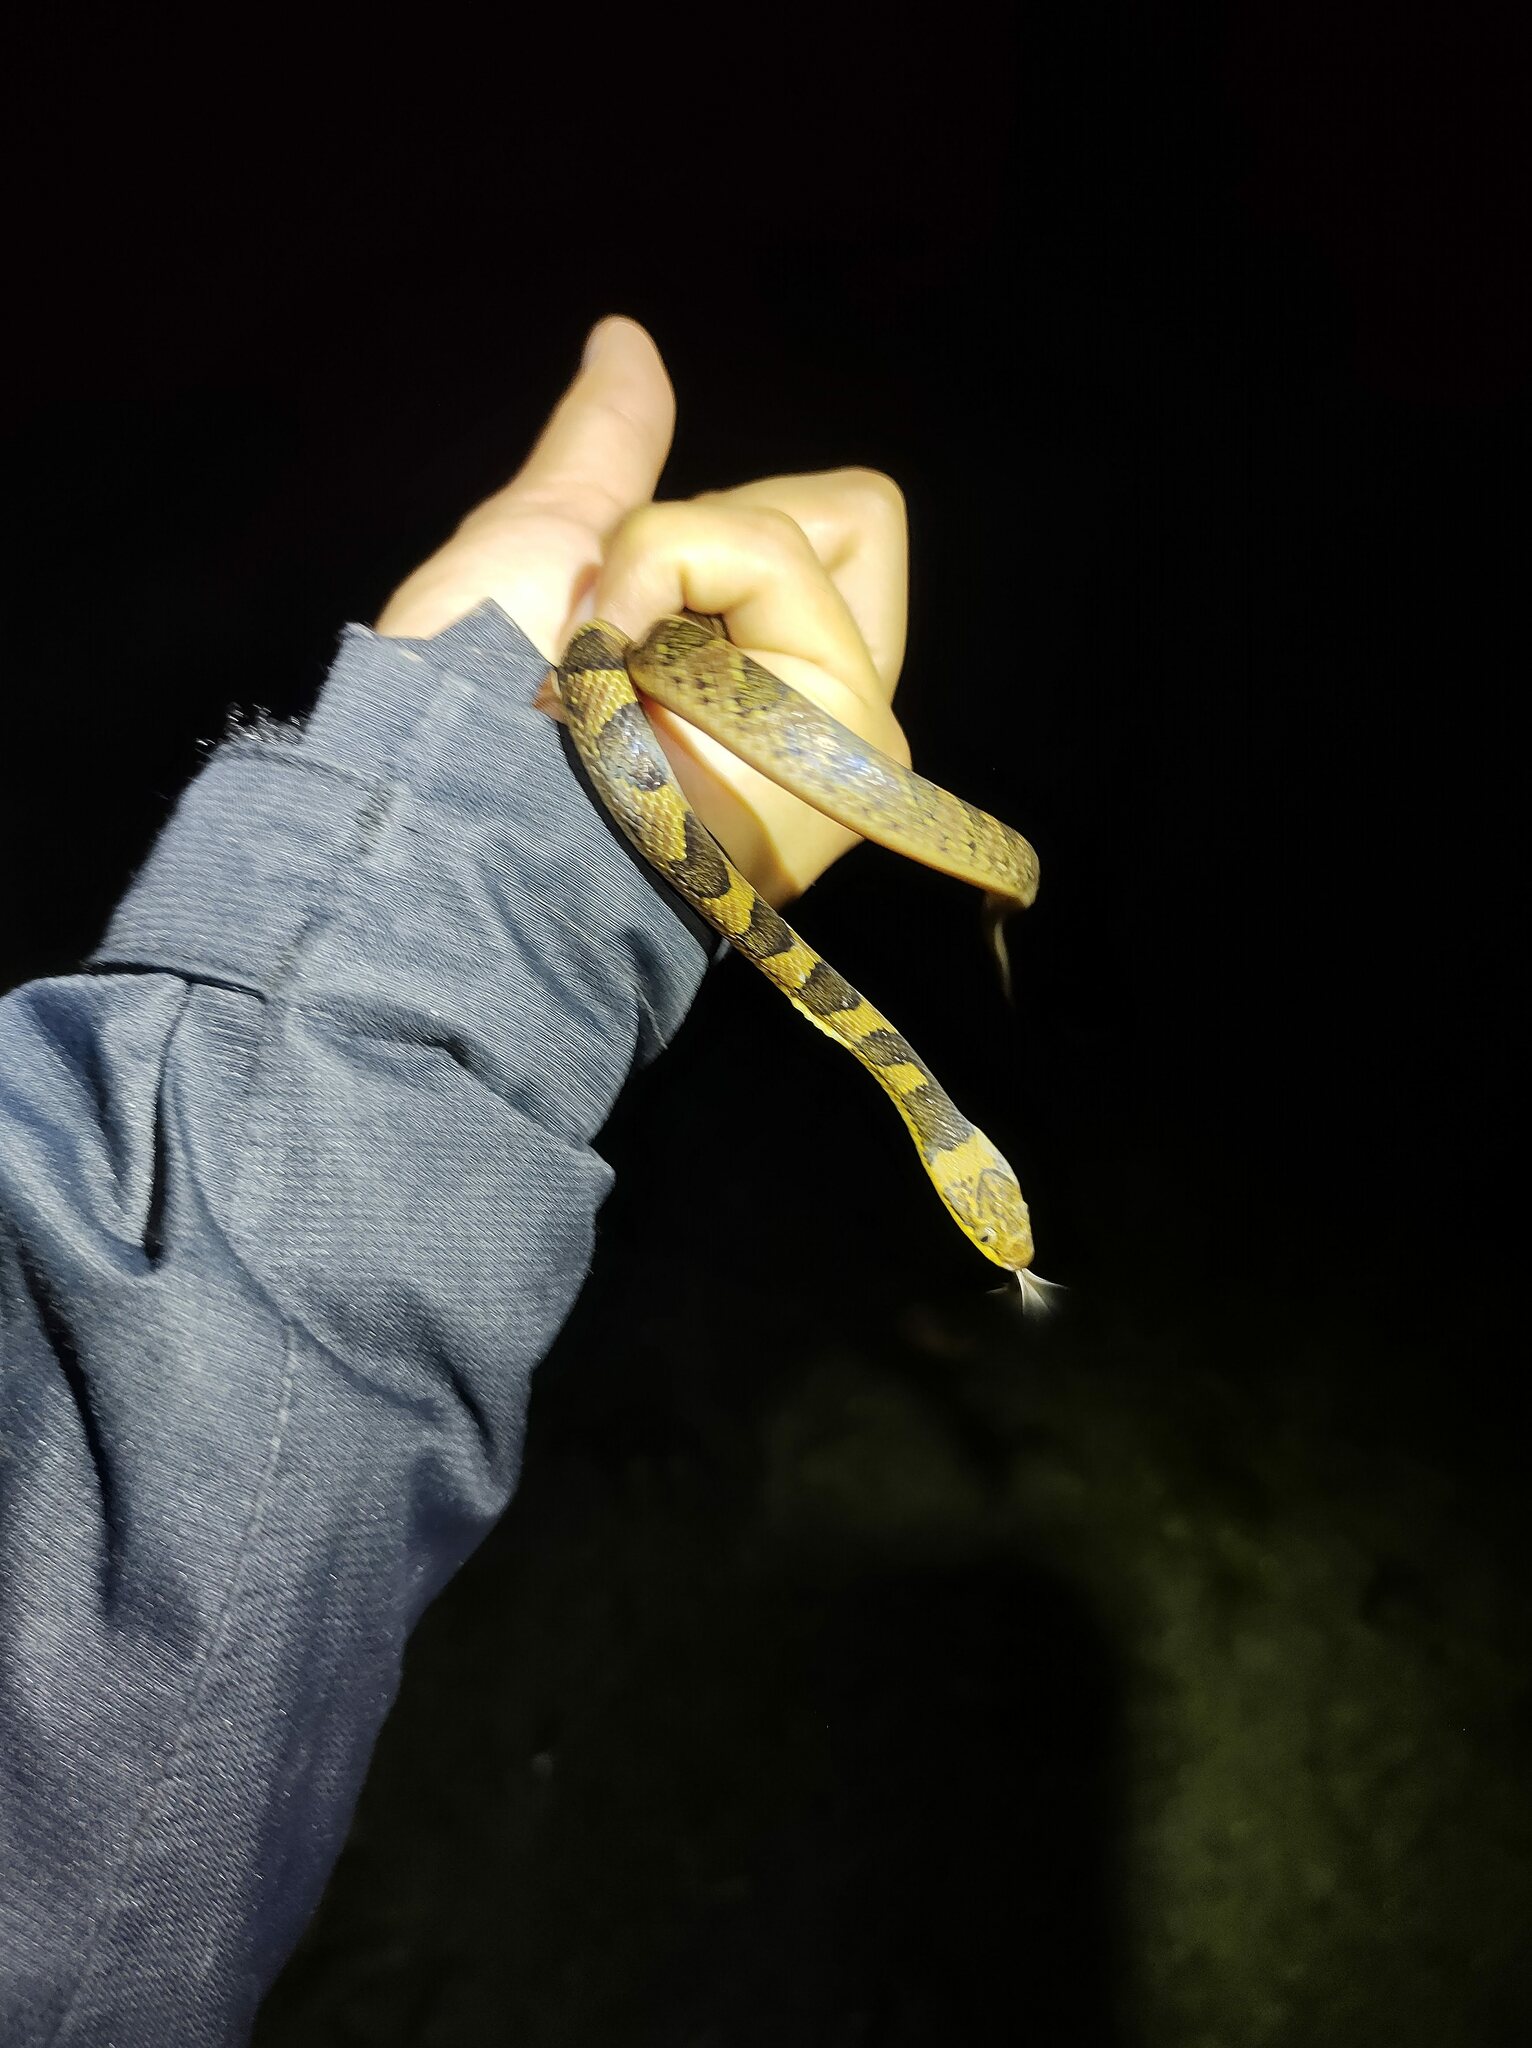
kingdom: Animalia
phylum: Chordata
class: Squamata
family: Colubridae
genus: Leptodeira
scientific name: Leptodeira maculata
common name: Southwestern cat-eyed snake
